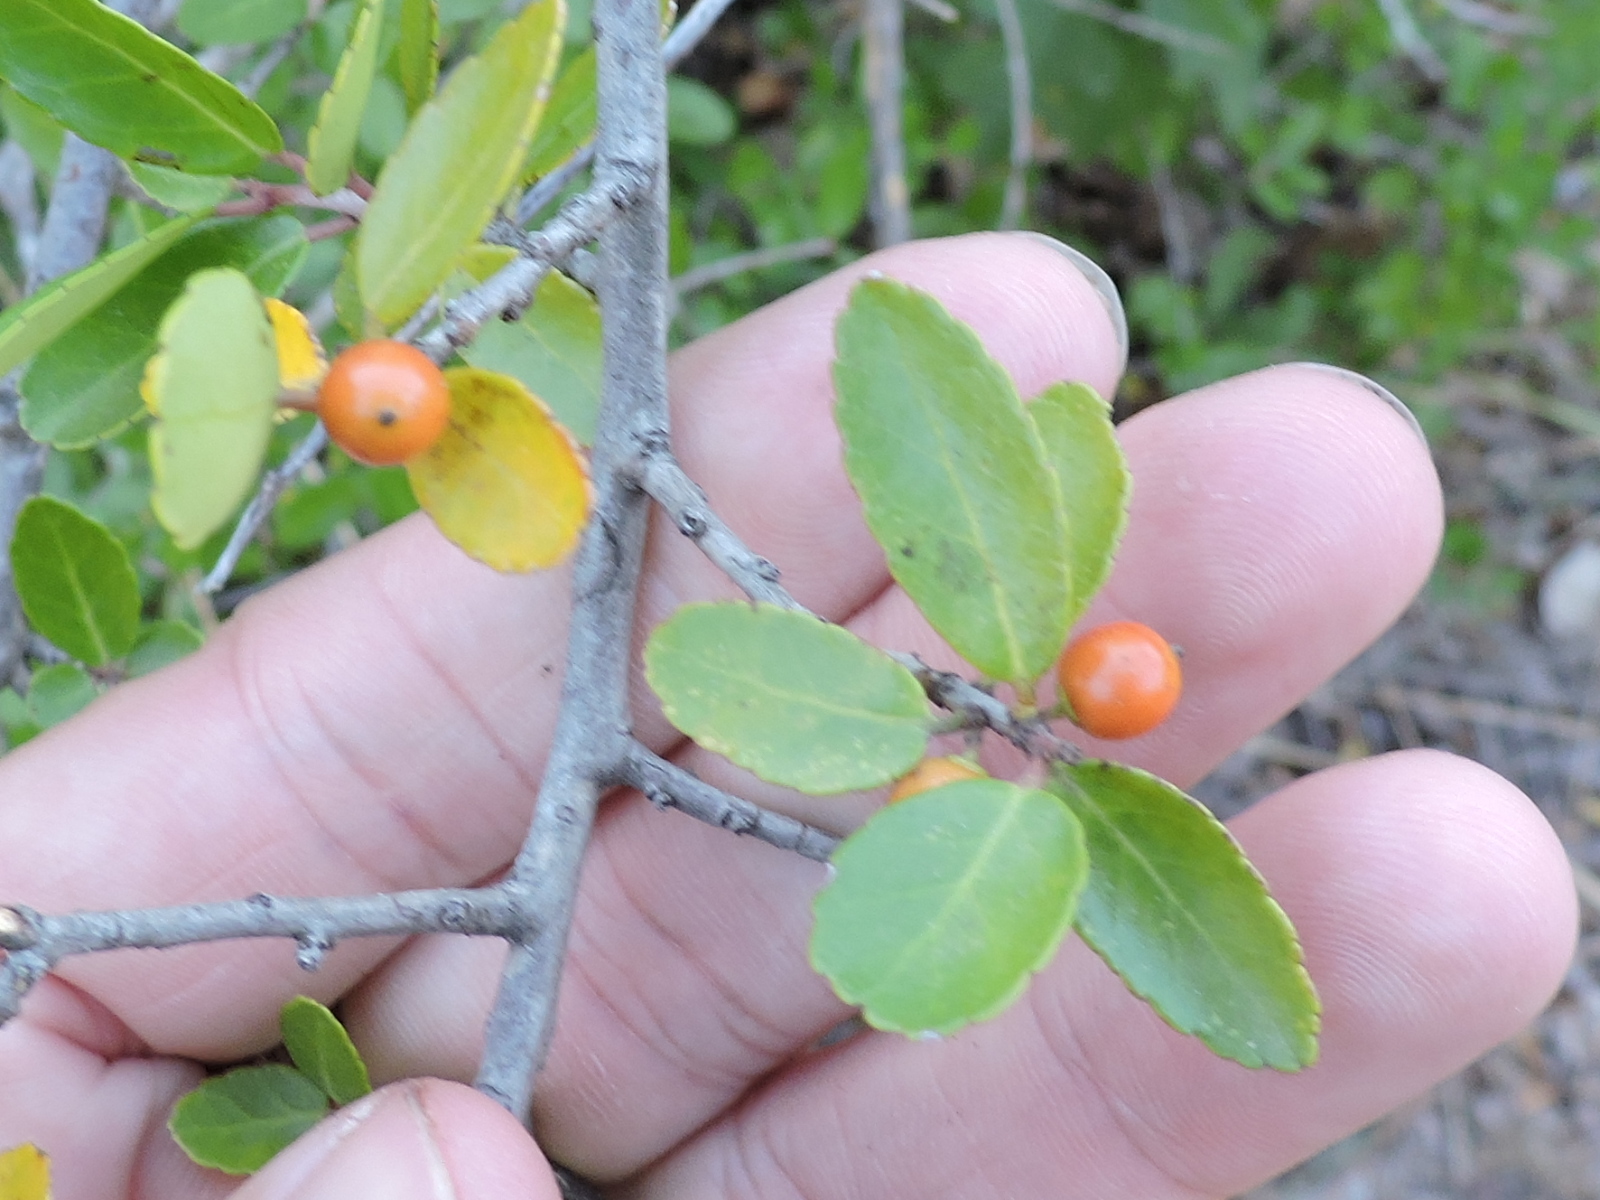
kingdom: Plantae
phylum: Tracheophyta
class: Magnoliopsida
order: Aquifoliales
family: Aquifoliaceae
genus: Ilex
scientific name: Ilex decidua
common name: Possum-haw
